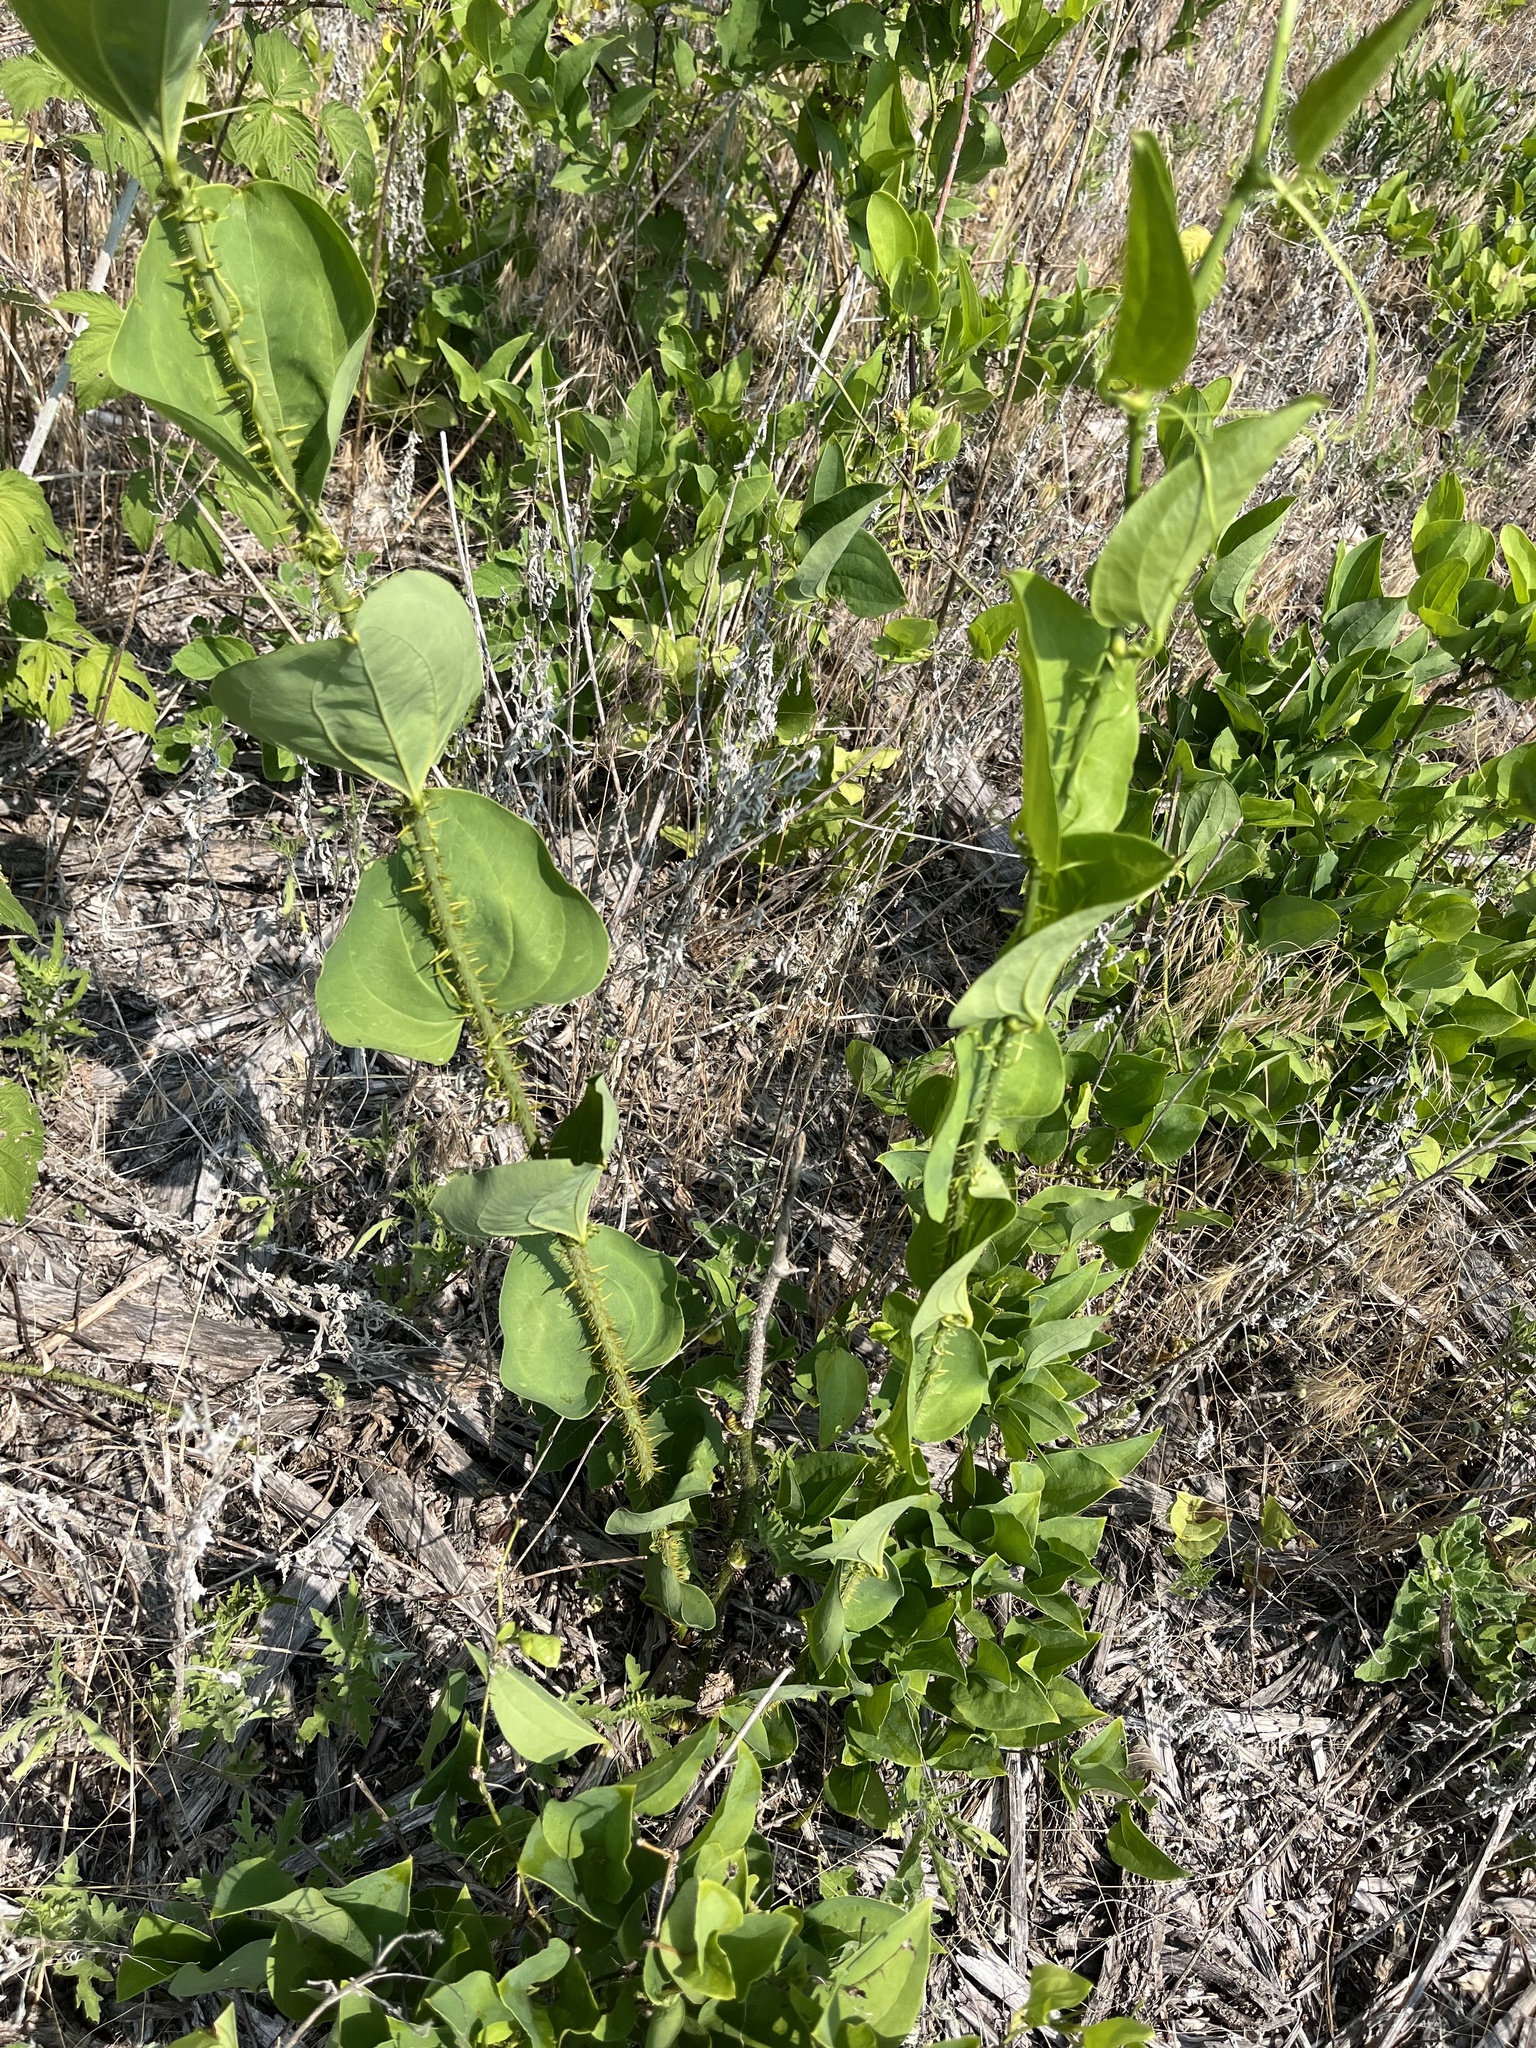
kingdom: Plantae
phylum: Tracheophyta
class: Liliopsida
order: Liliales
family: Smilacaceae
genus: Smilax
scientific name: Smilax tamnoides
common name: Hellfetter
